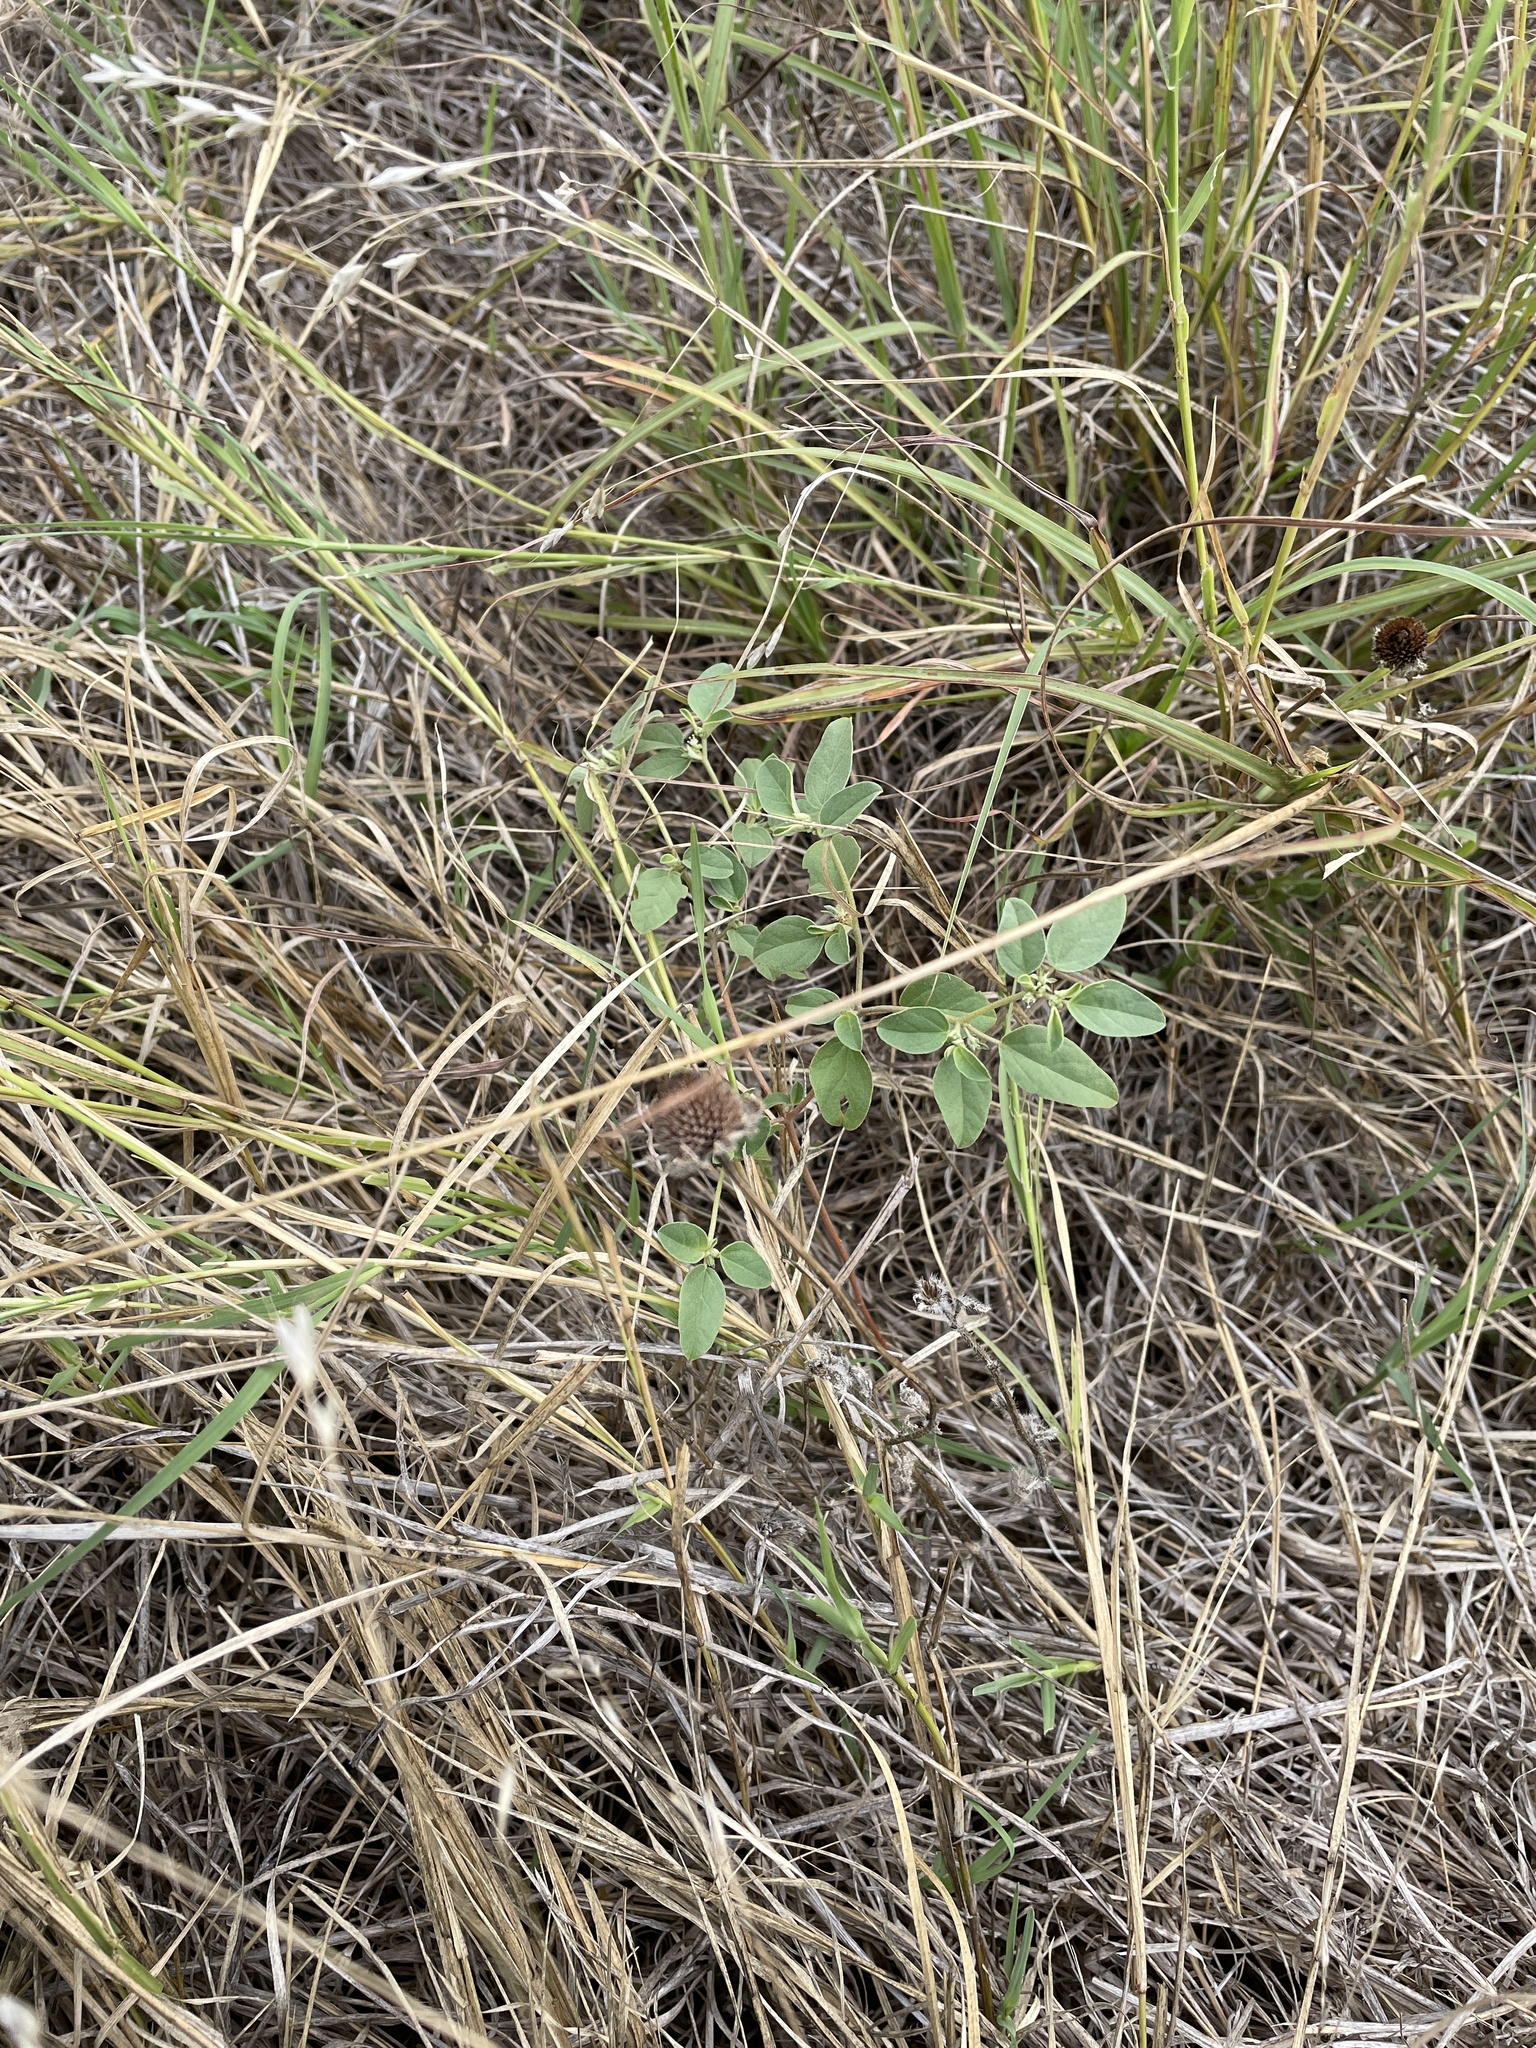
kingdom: Plantae
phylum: Tracheophyta
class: Magnoliopsida
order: Malpighiales
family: Euphorbiaceae
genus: Croton
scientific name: Croton monanthogynus
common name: One-seed croton
